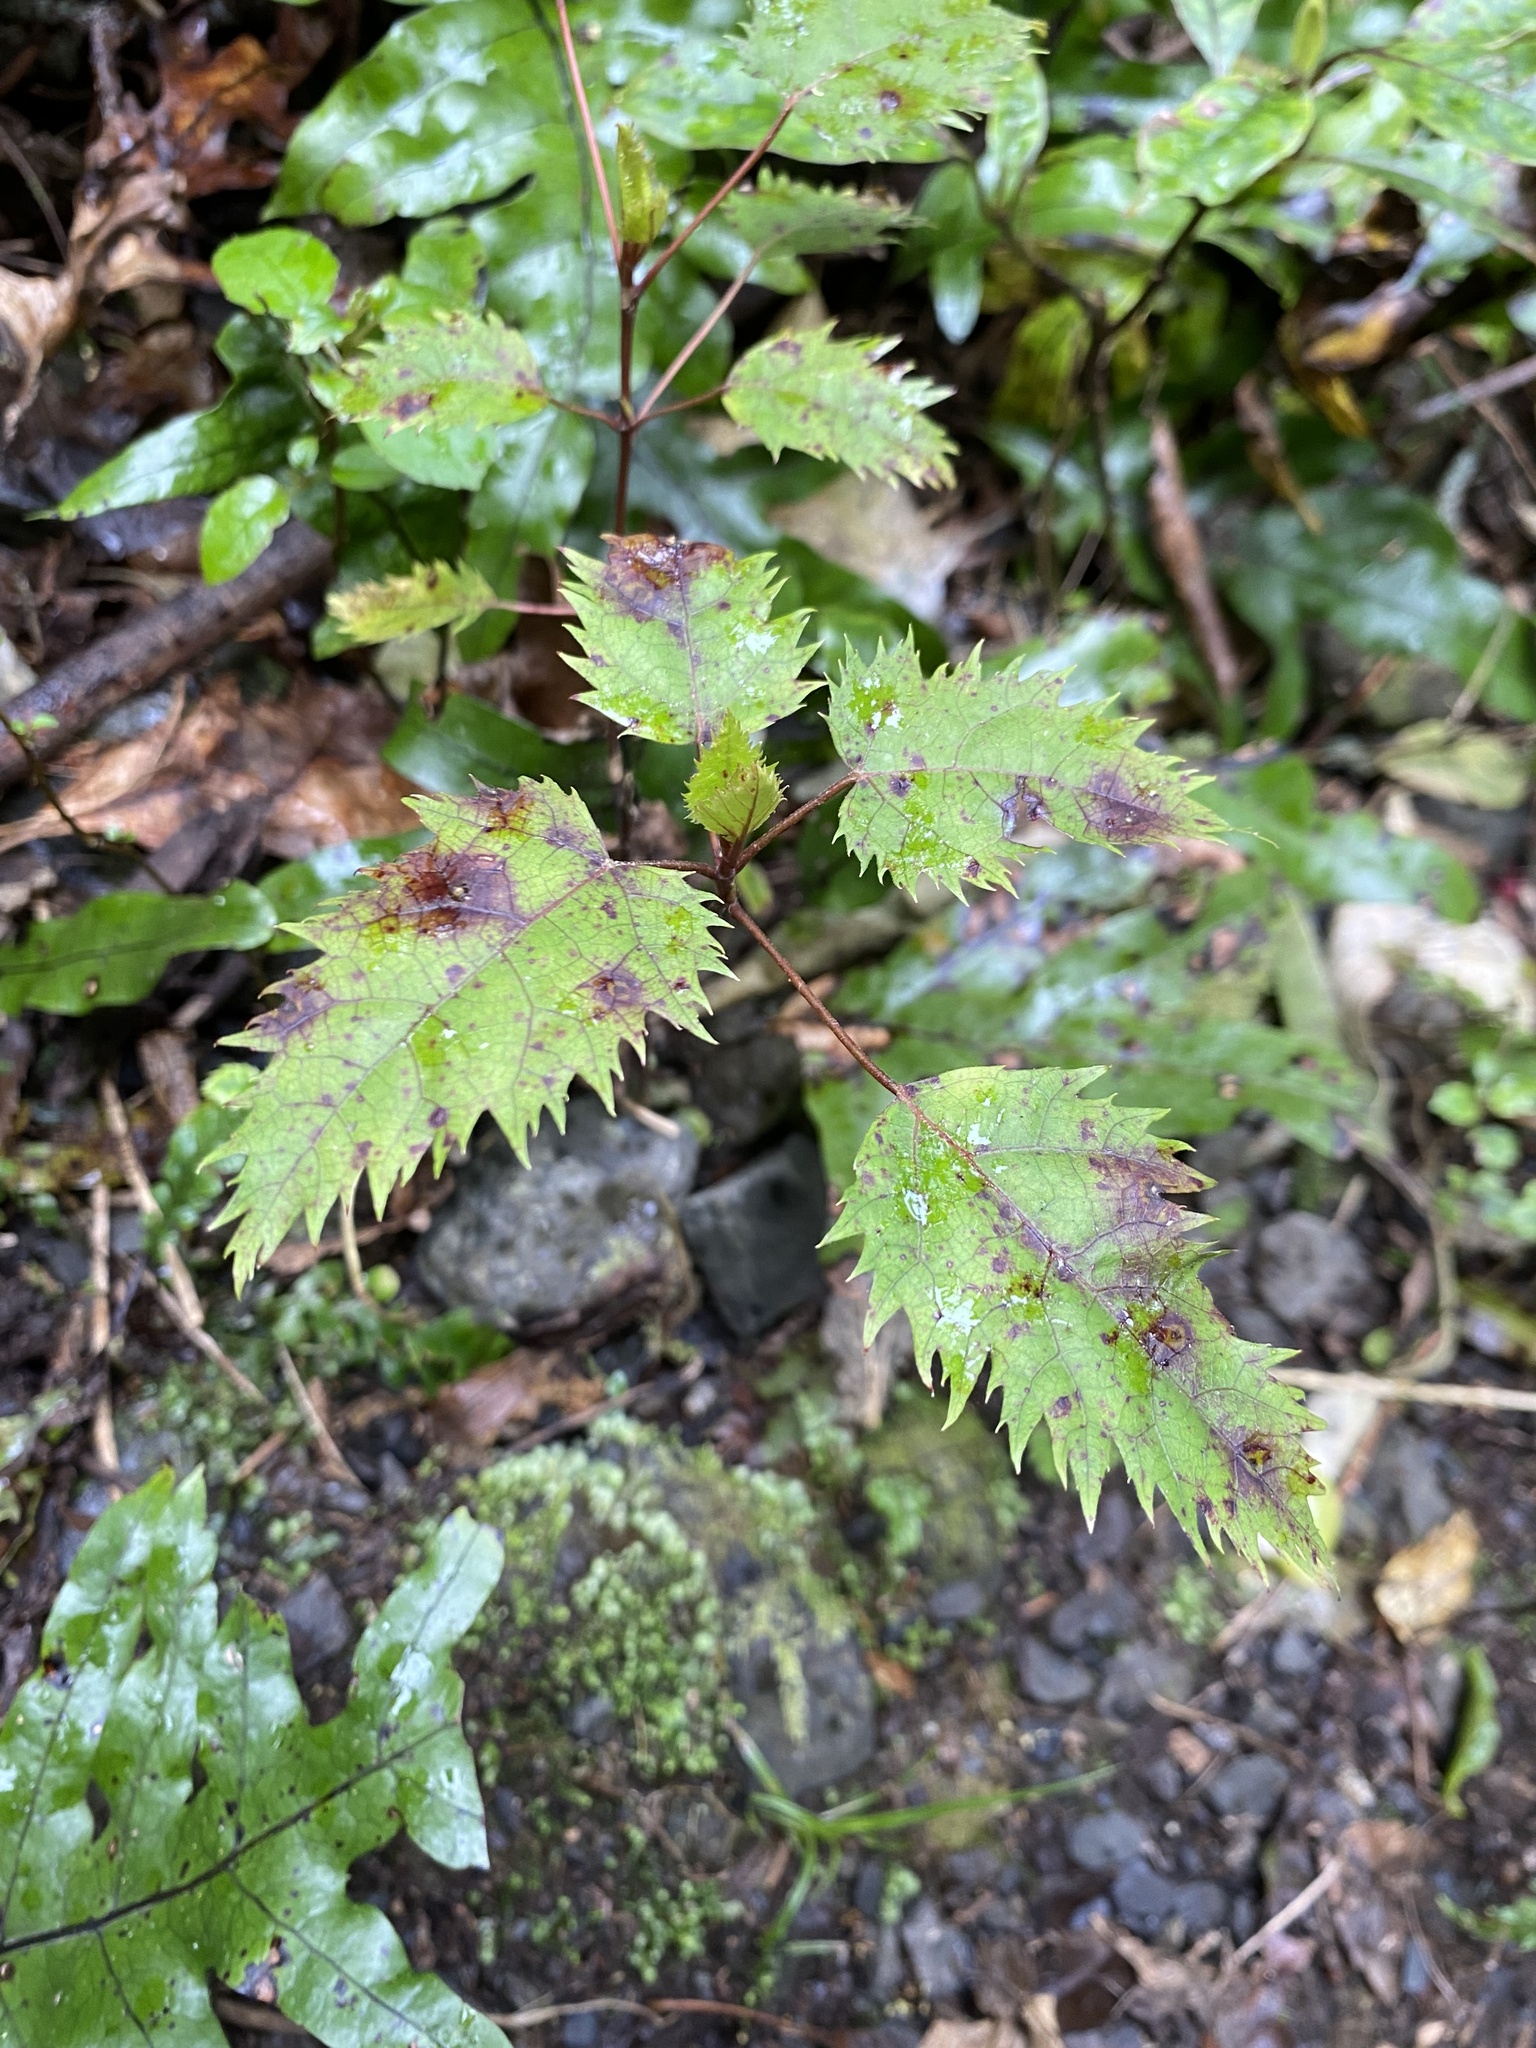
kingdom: Plantae
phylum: Tracheophyta
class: Magnoliopsida
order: Oxalidales
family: Elaeocarpaceae
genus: Aristotelia
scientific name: Aristotelia serrata
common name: New zealand wineberry
